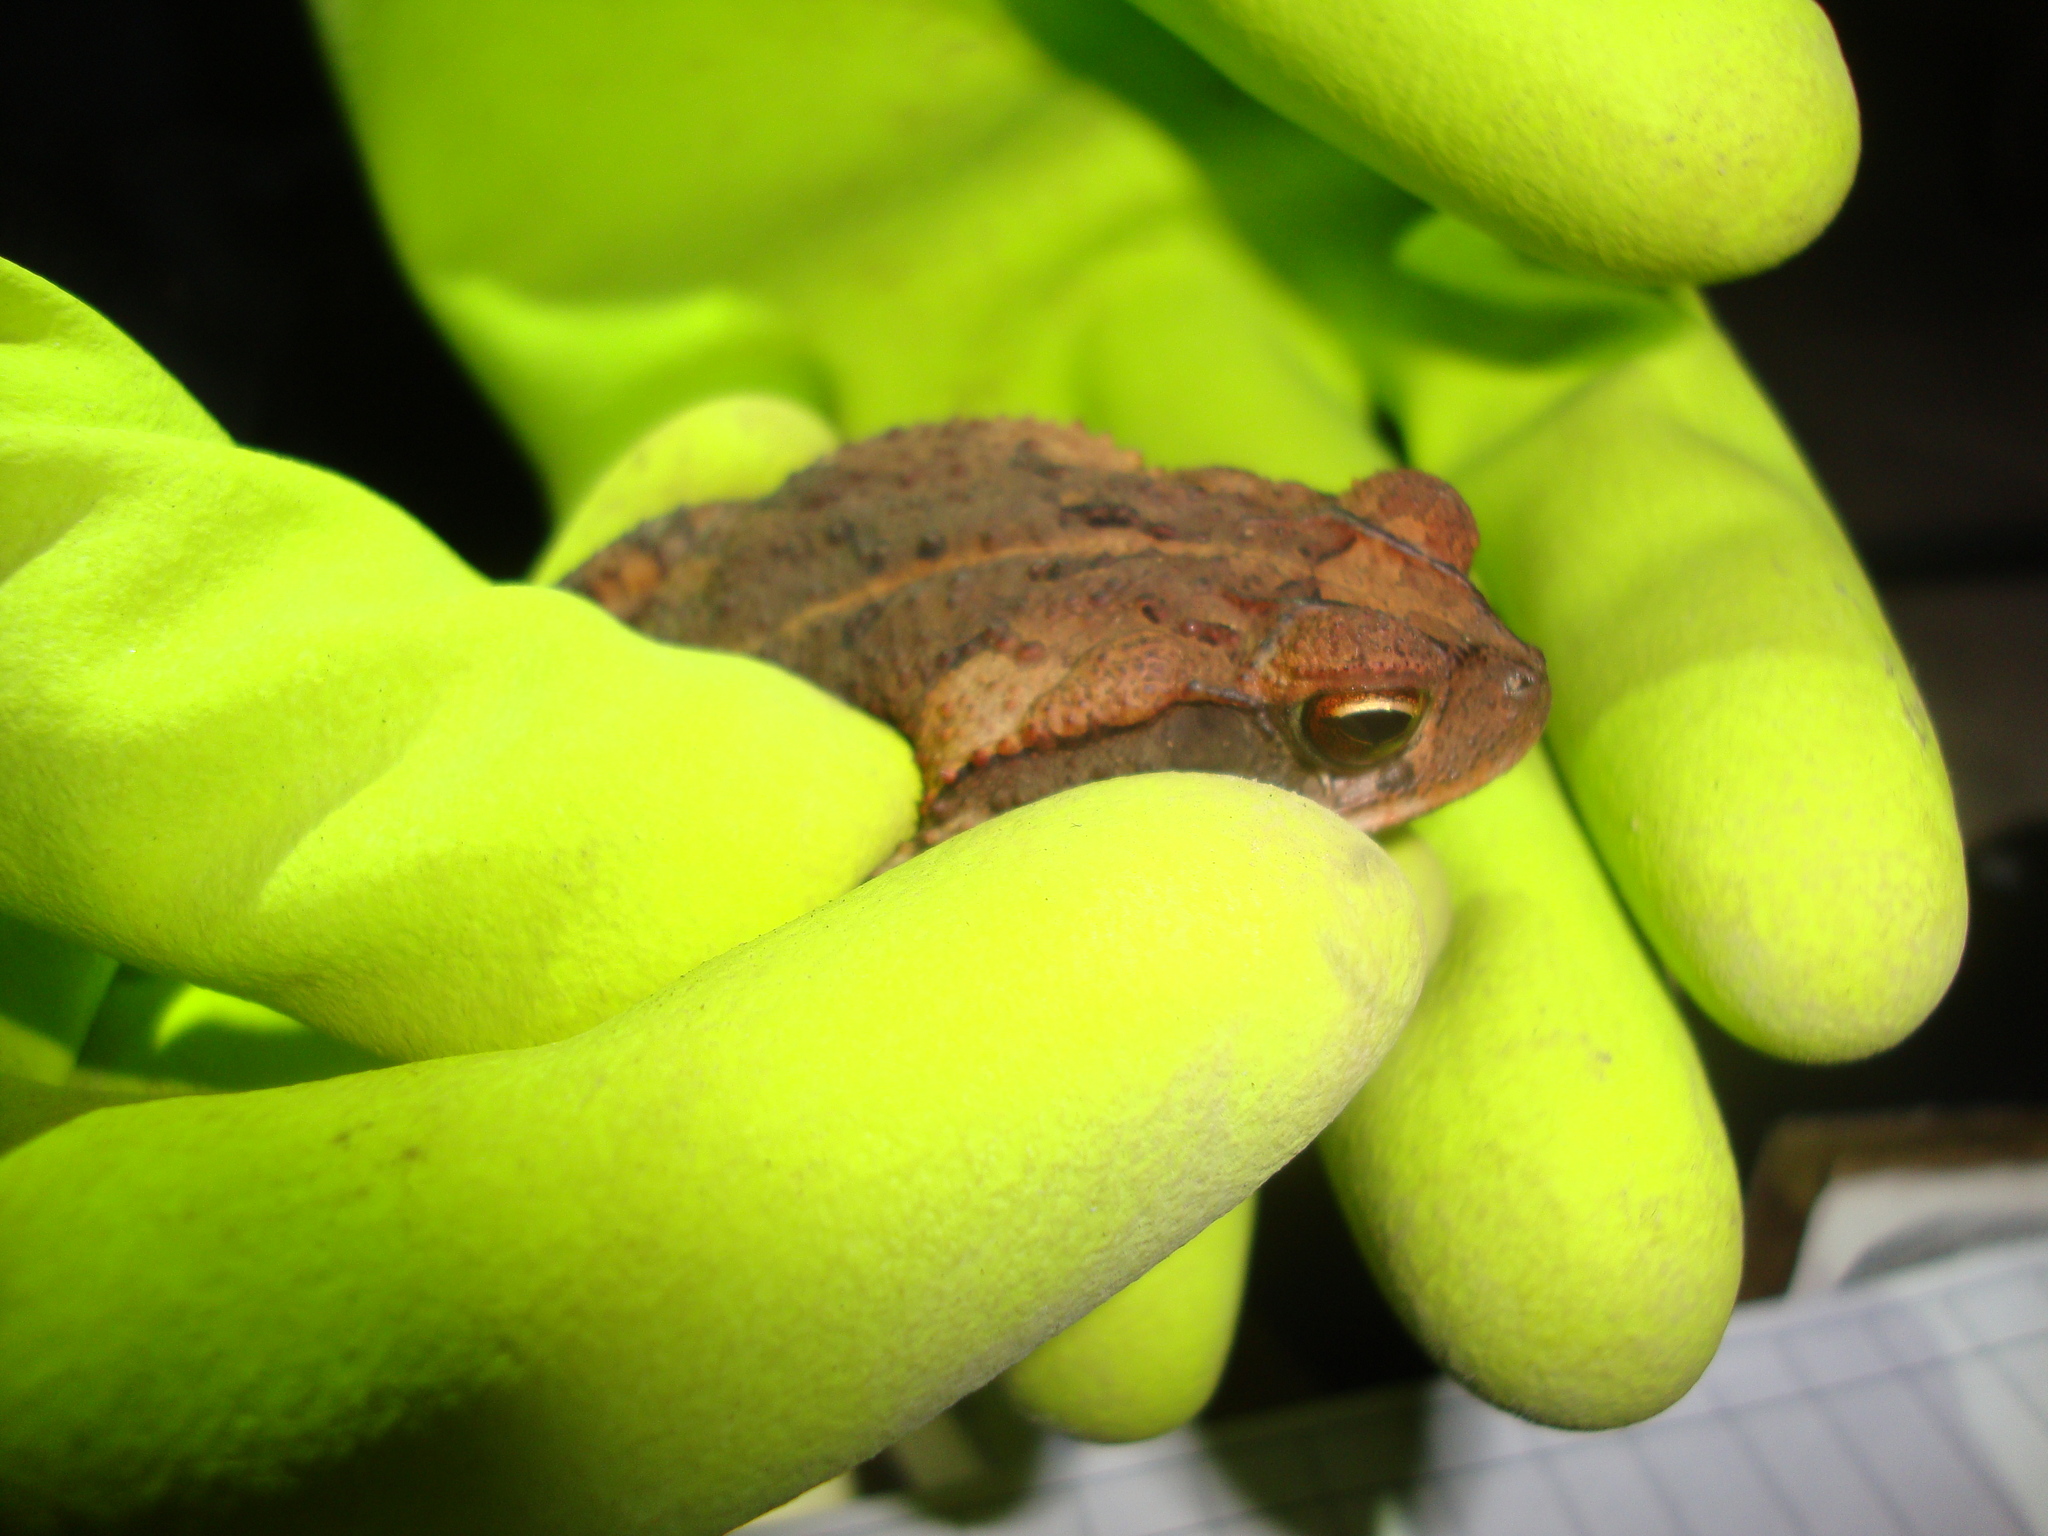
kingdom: Animalia
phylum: Chordata
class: Amphibia
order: Anura
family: Bufonidae
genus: Incilius
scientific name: Incilius valliceps
